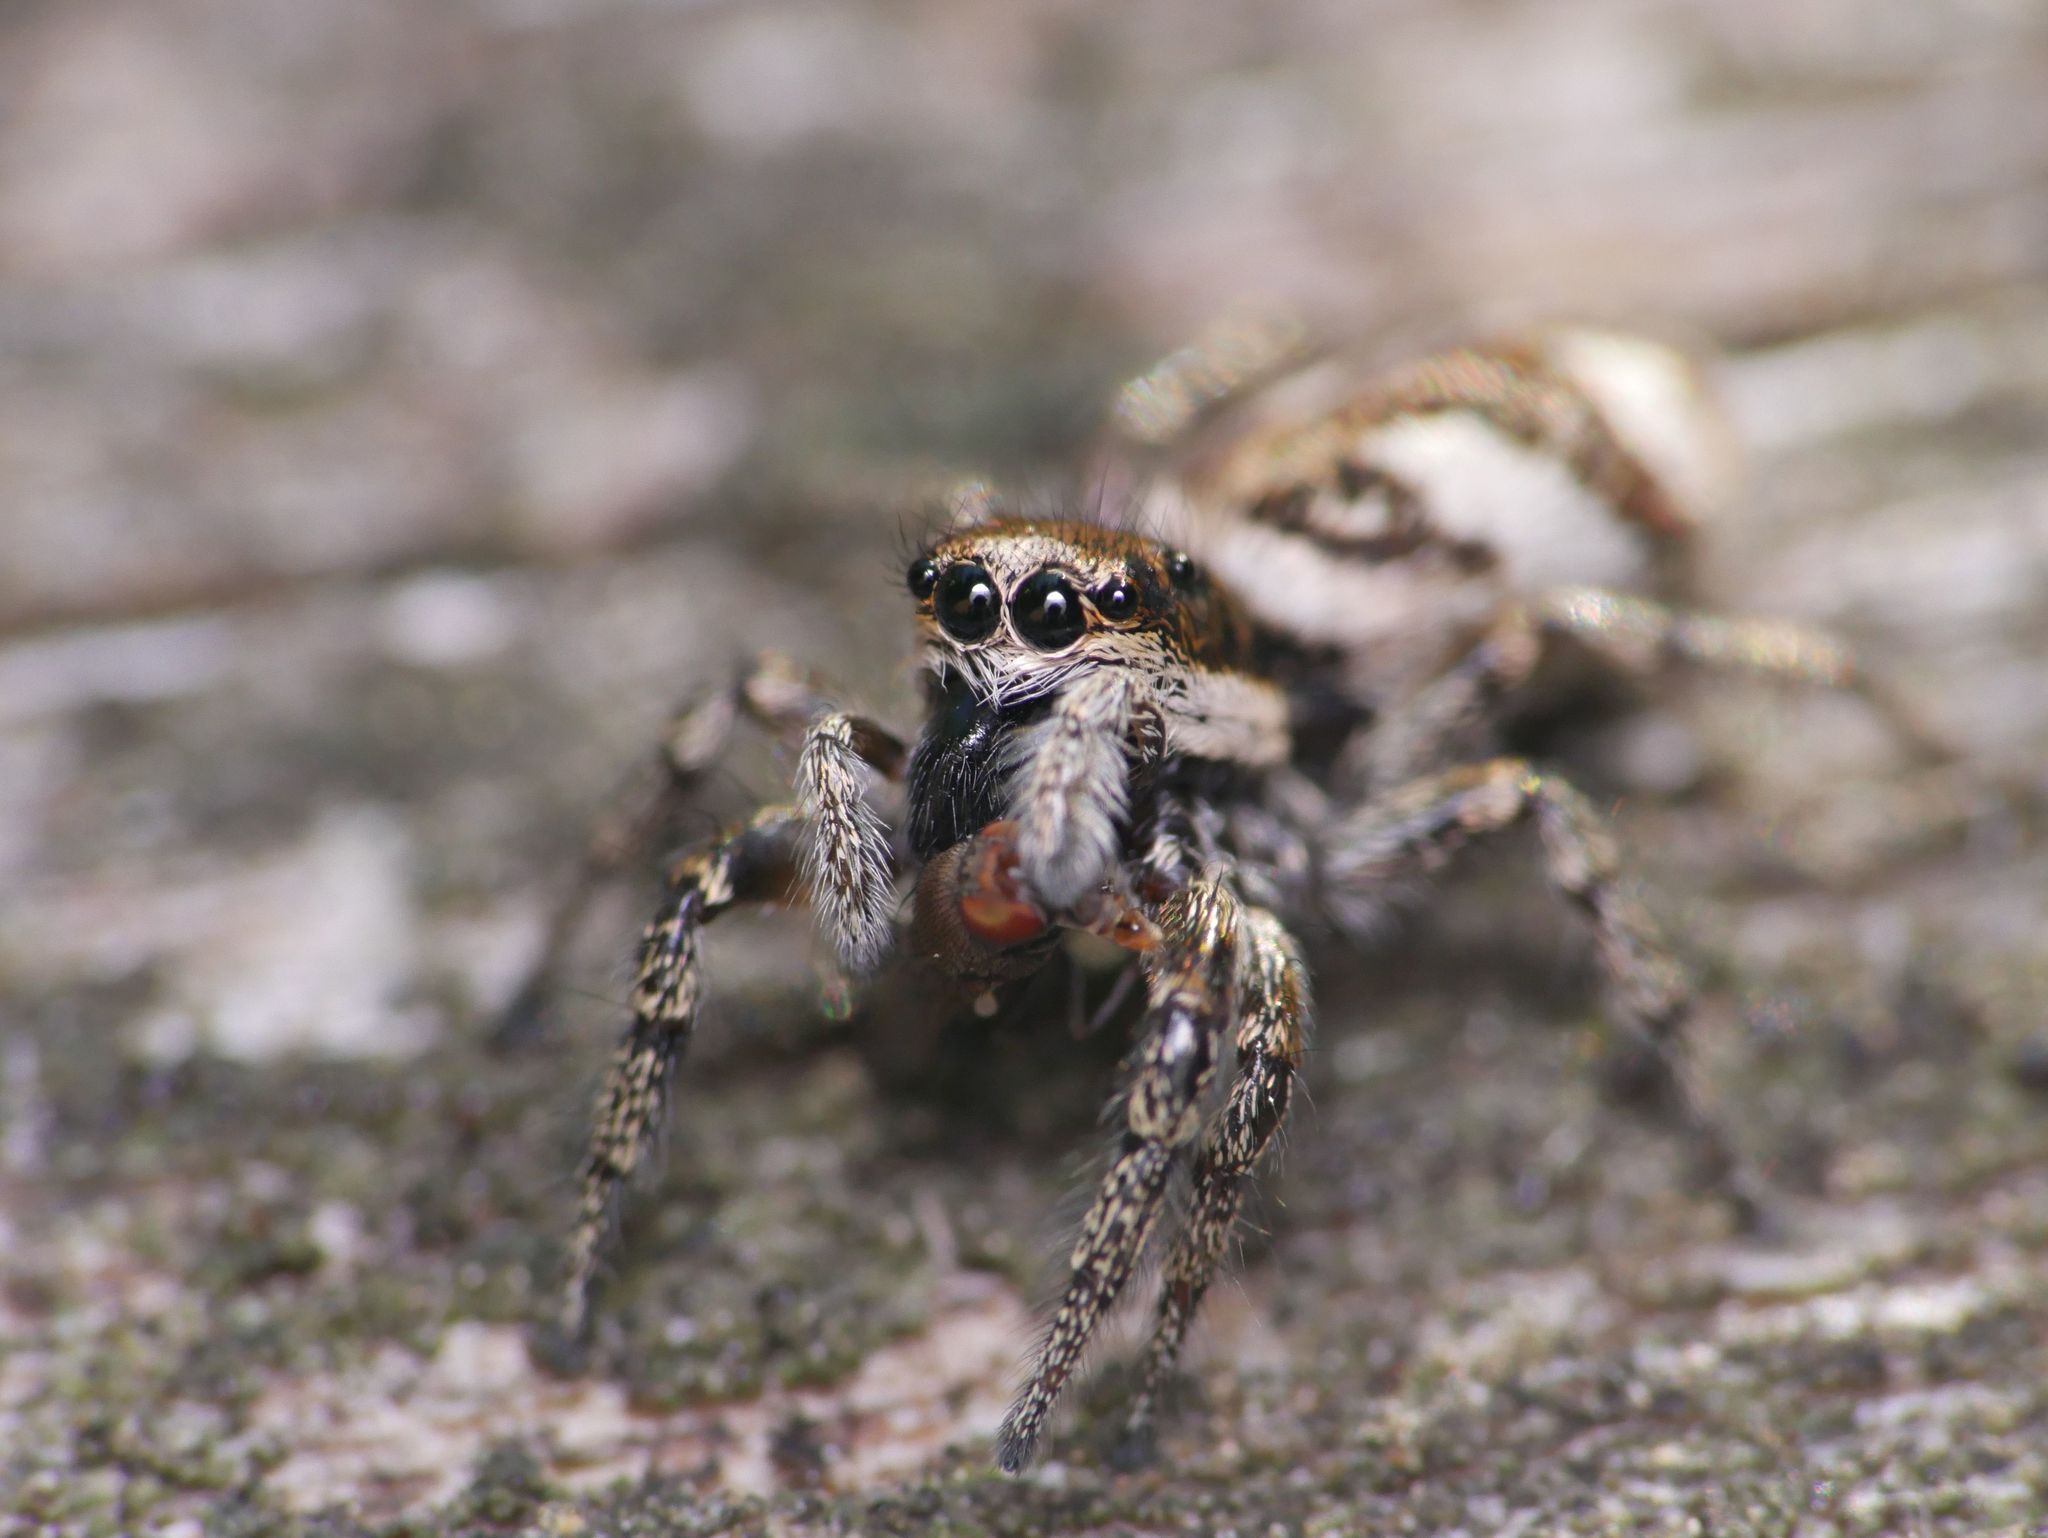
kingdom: Animalia
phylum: Arthropoda
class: Arachnida
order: Araneae
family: Salticidae
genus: Salticus
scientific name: Salticus scenicus
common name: Zebra jumper
